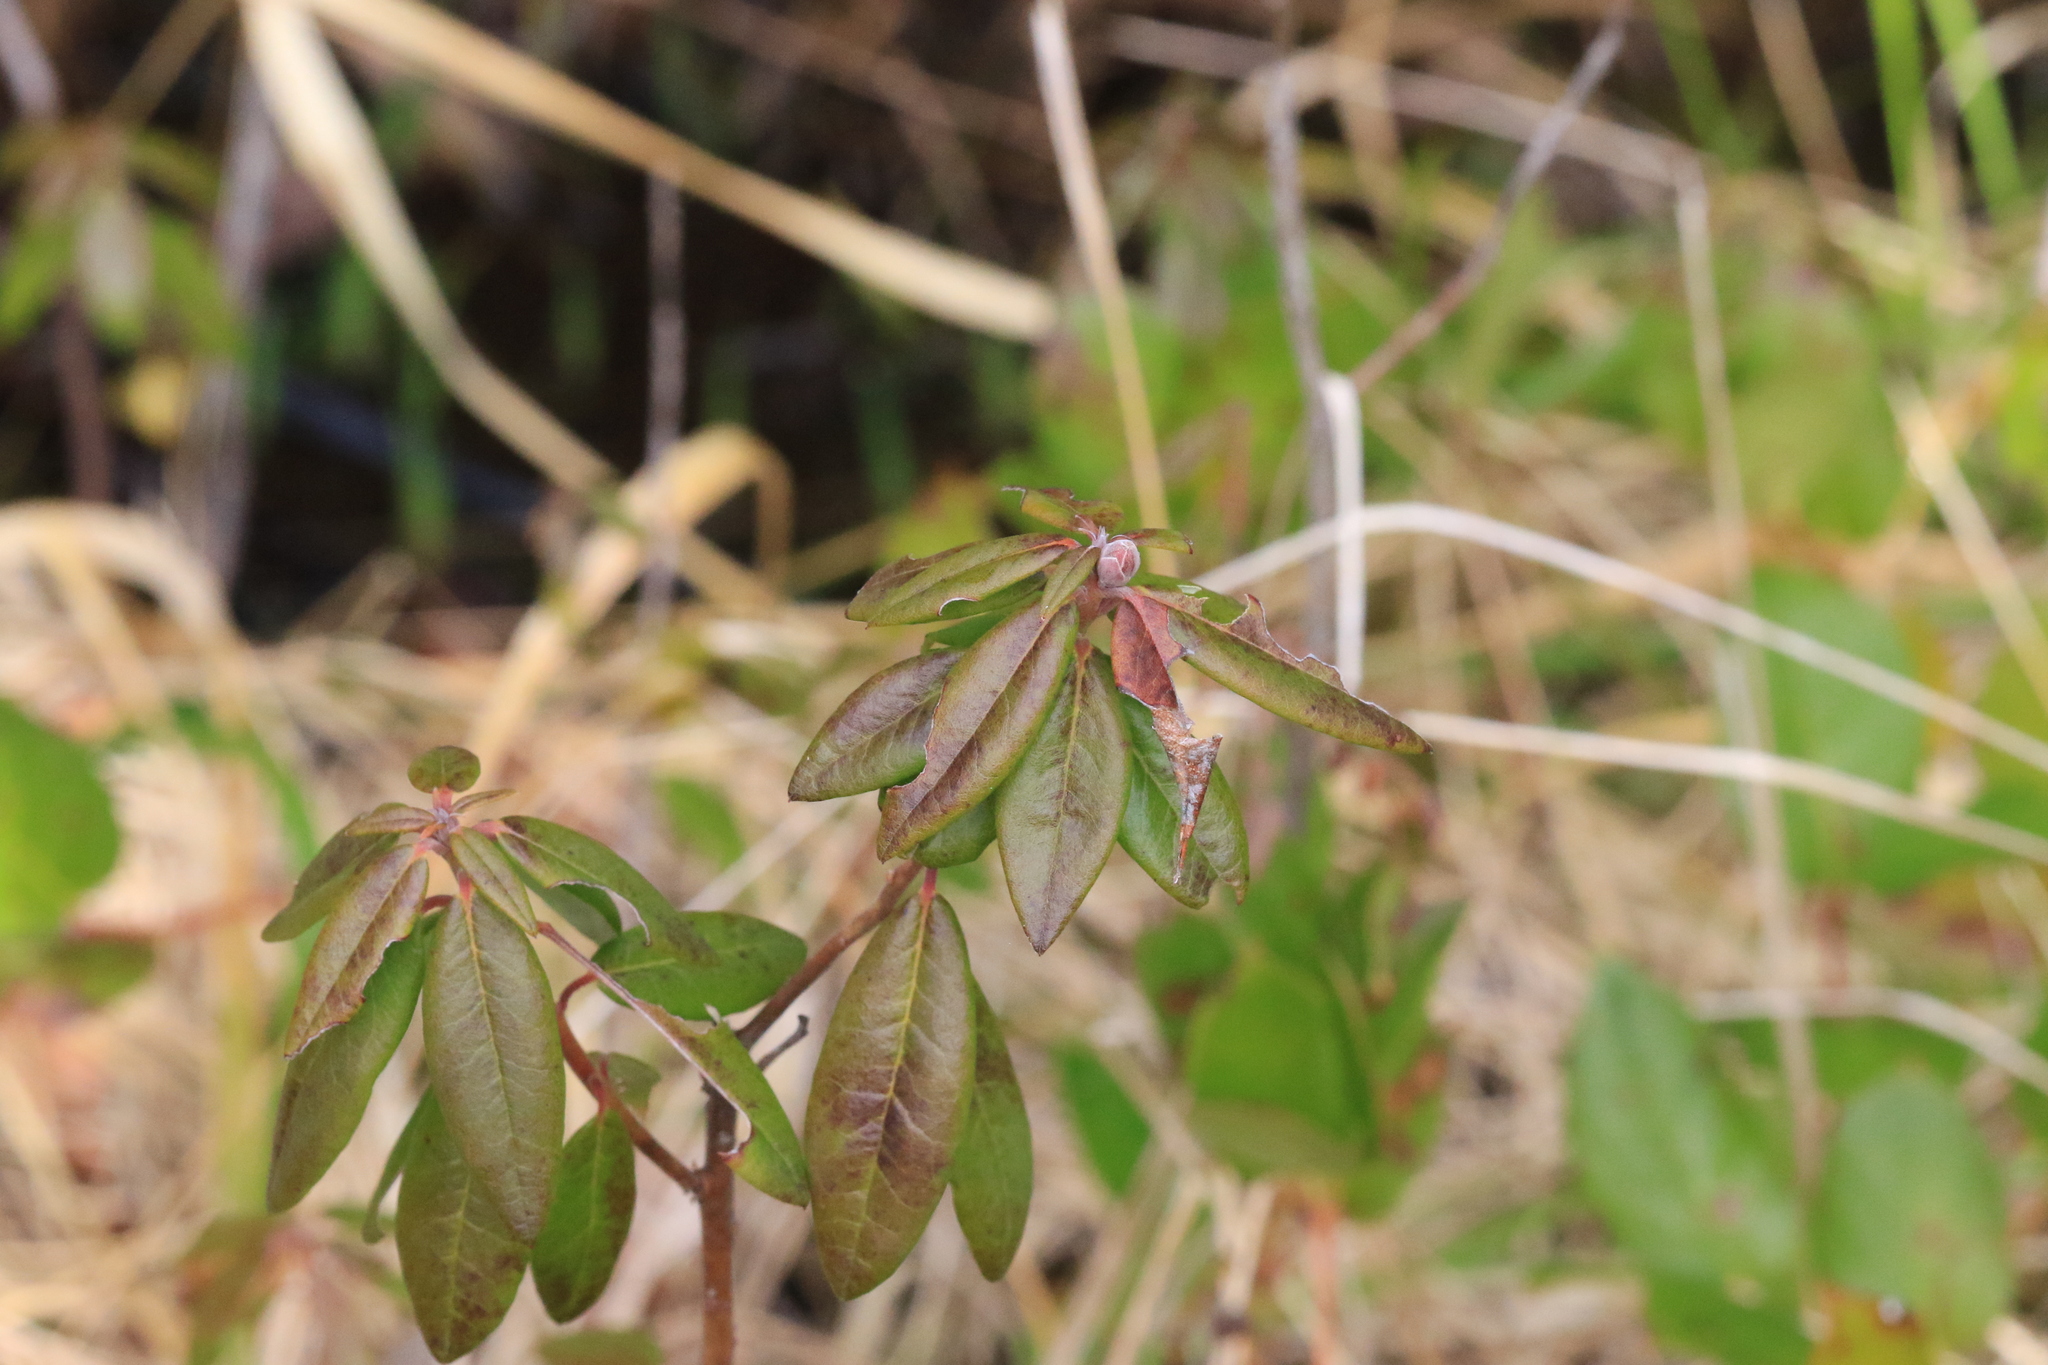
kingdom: Plantae
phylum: Tracheophyta
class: Magnoliopsida
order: Ericales
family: Ericaceae
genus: Rhododendron
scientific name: Rhododendron columbianum
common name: Western labrador tea
